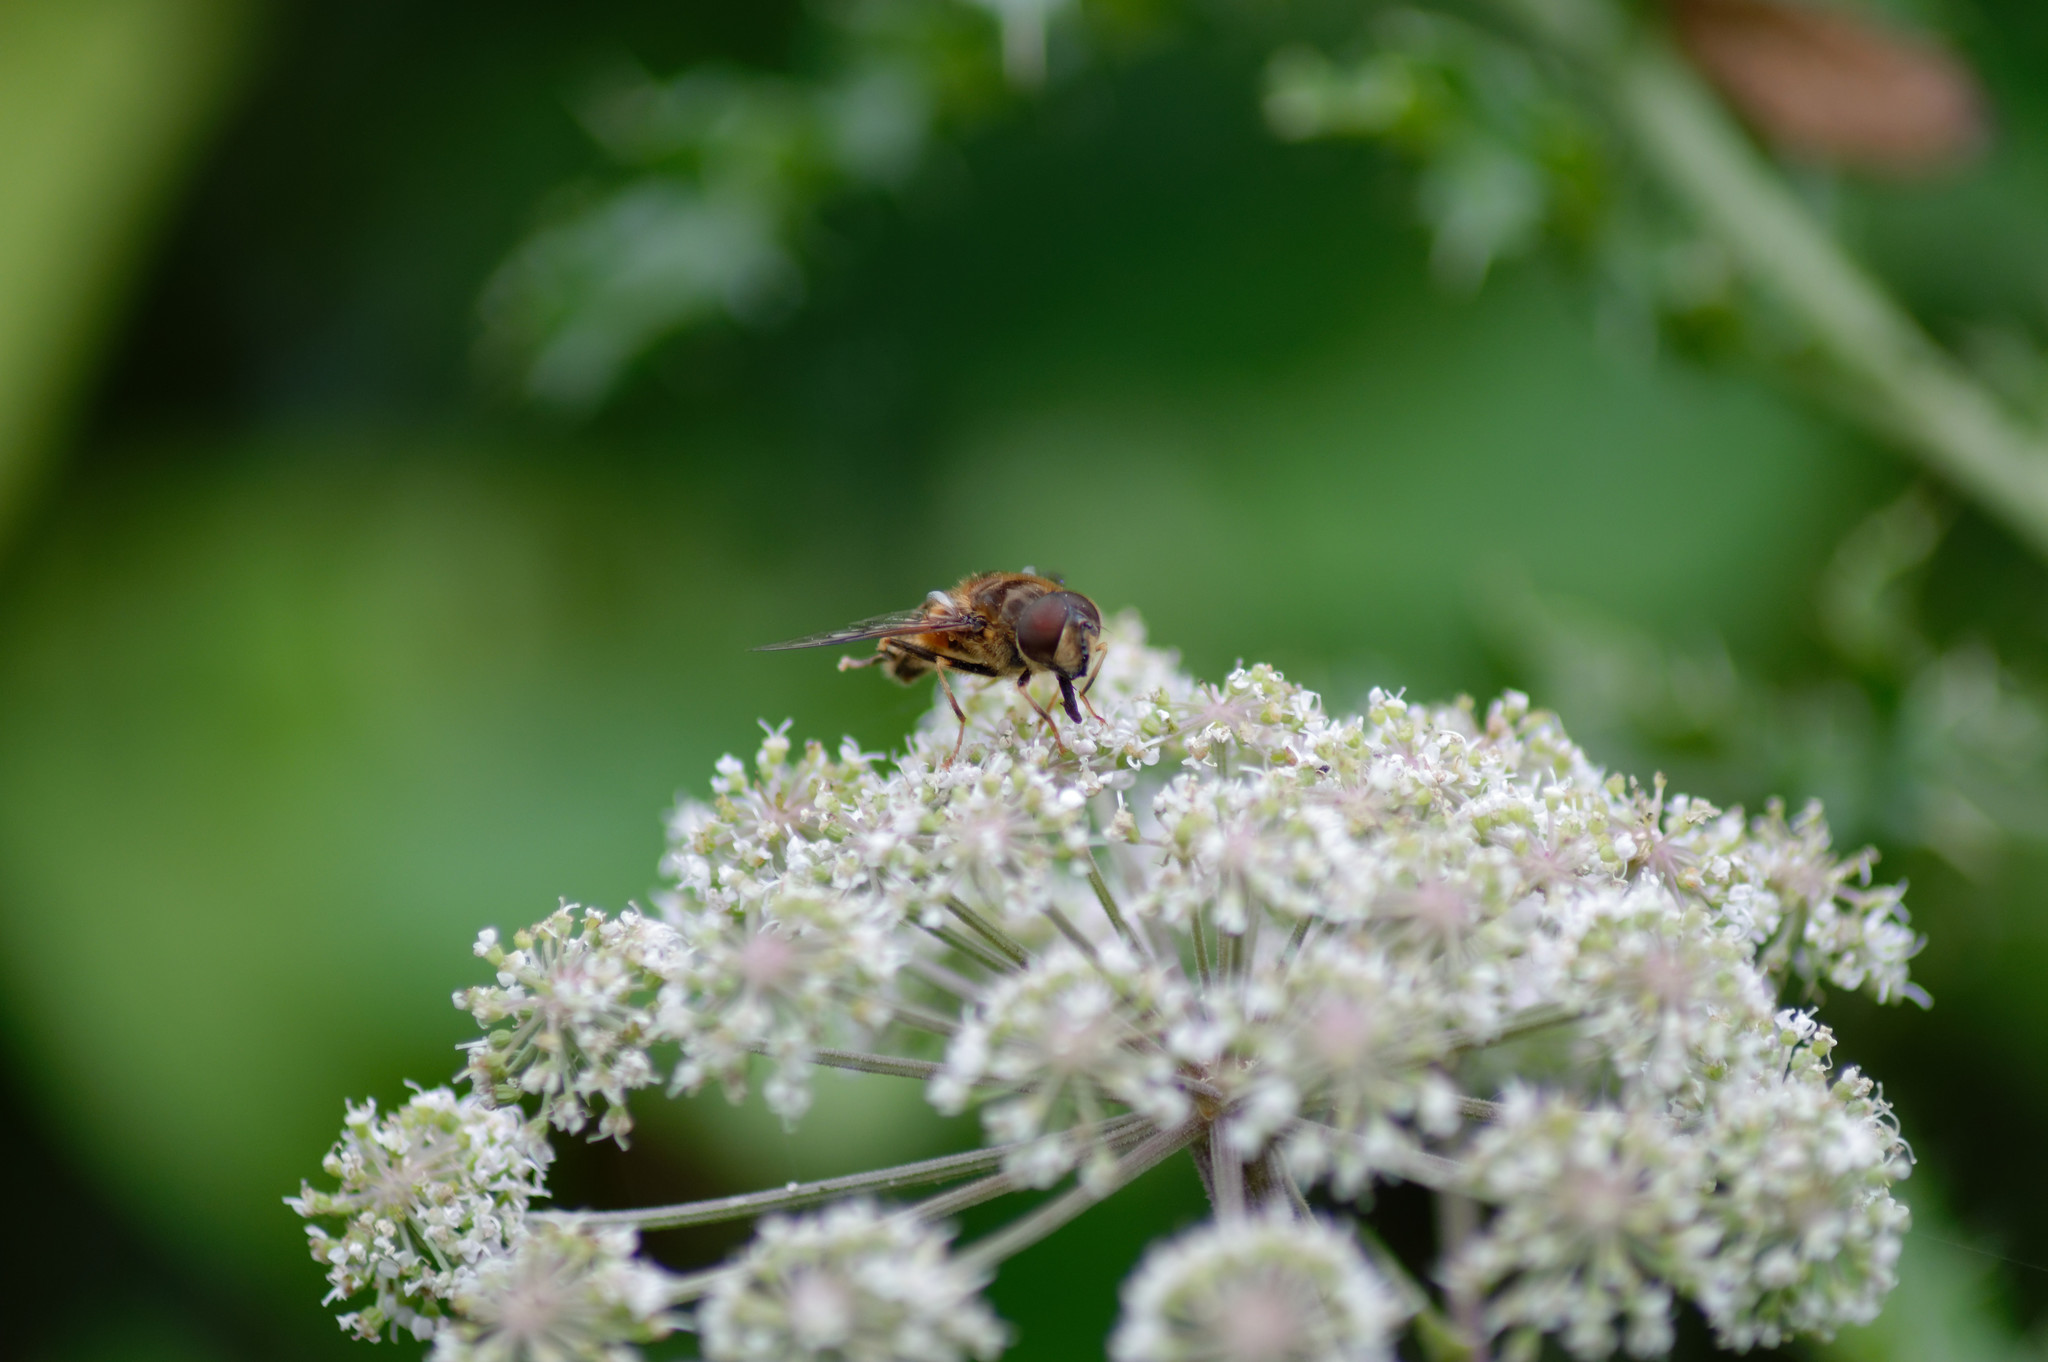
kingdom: Animalia
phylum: Arthropoda
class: Insecta
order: Diptera
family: Syrphidae
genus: Eristalis
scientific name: Eristalis pertinax
